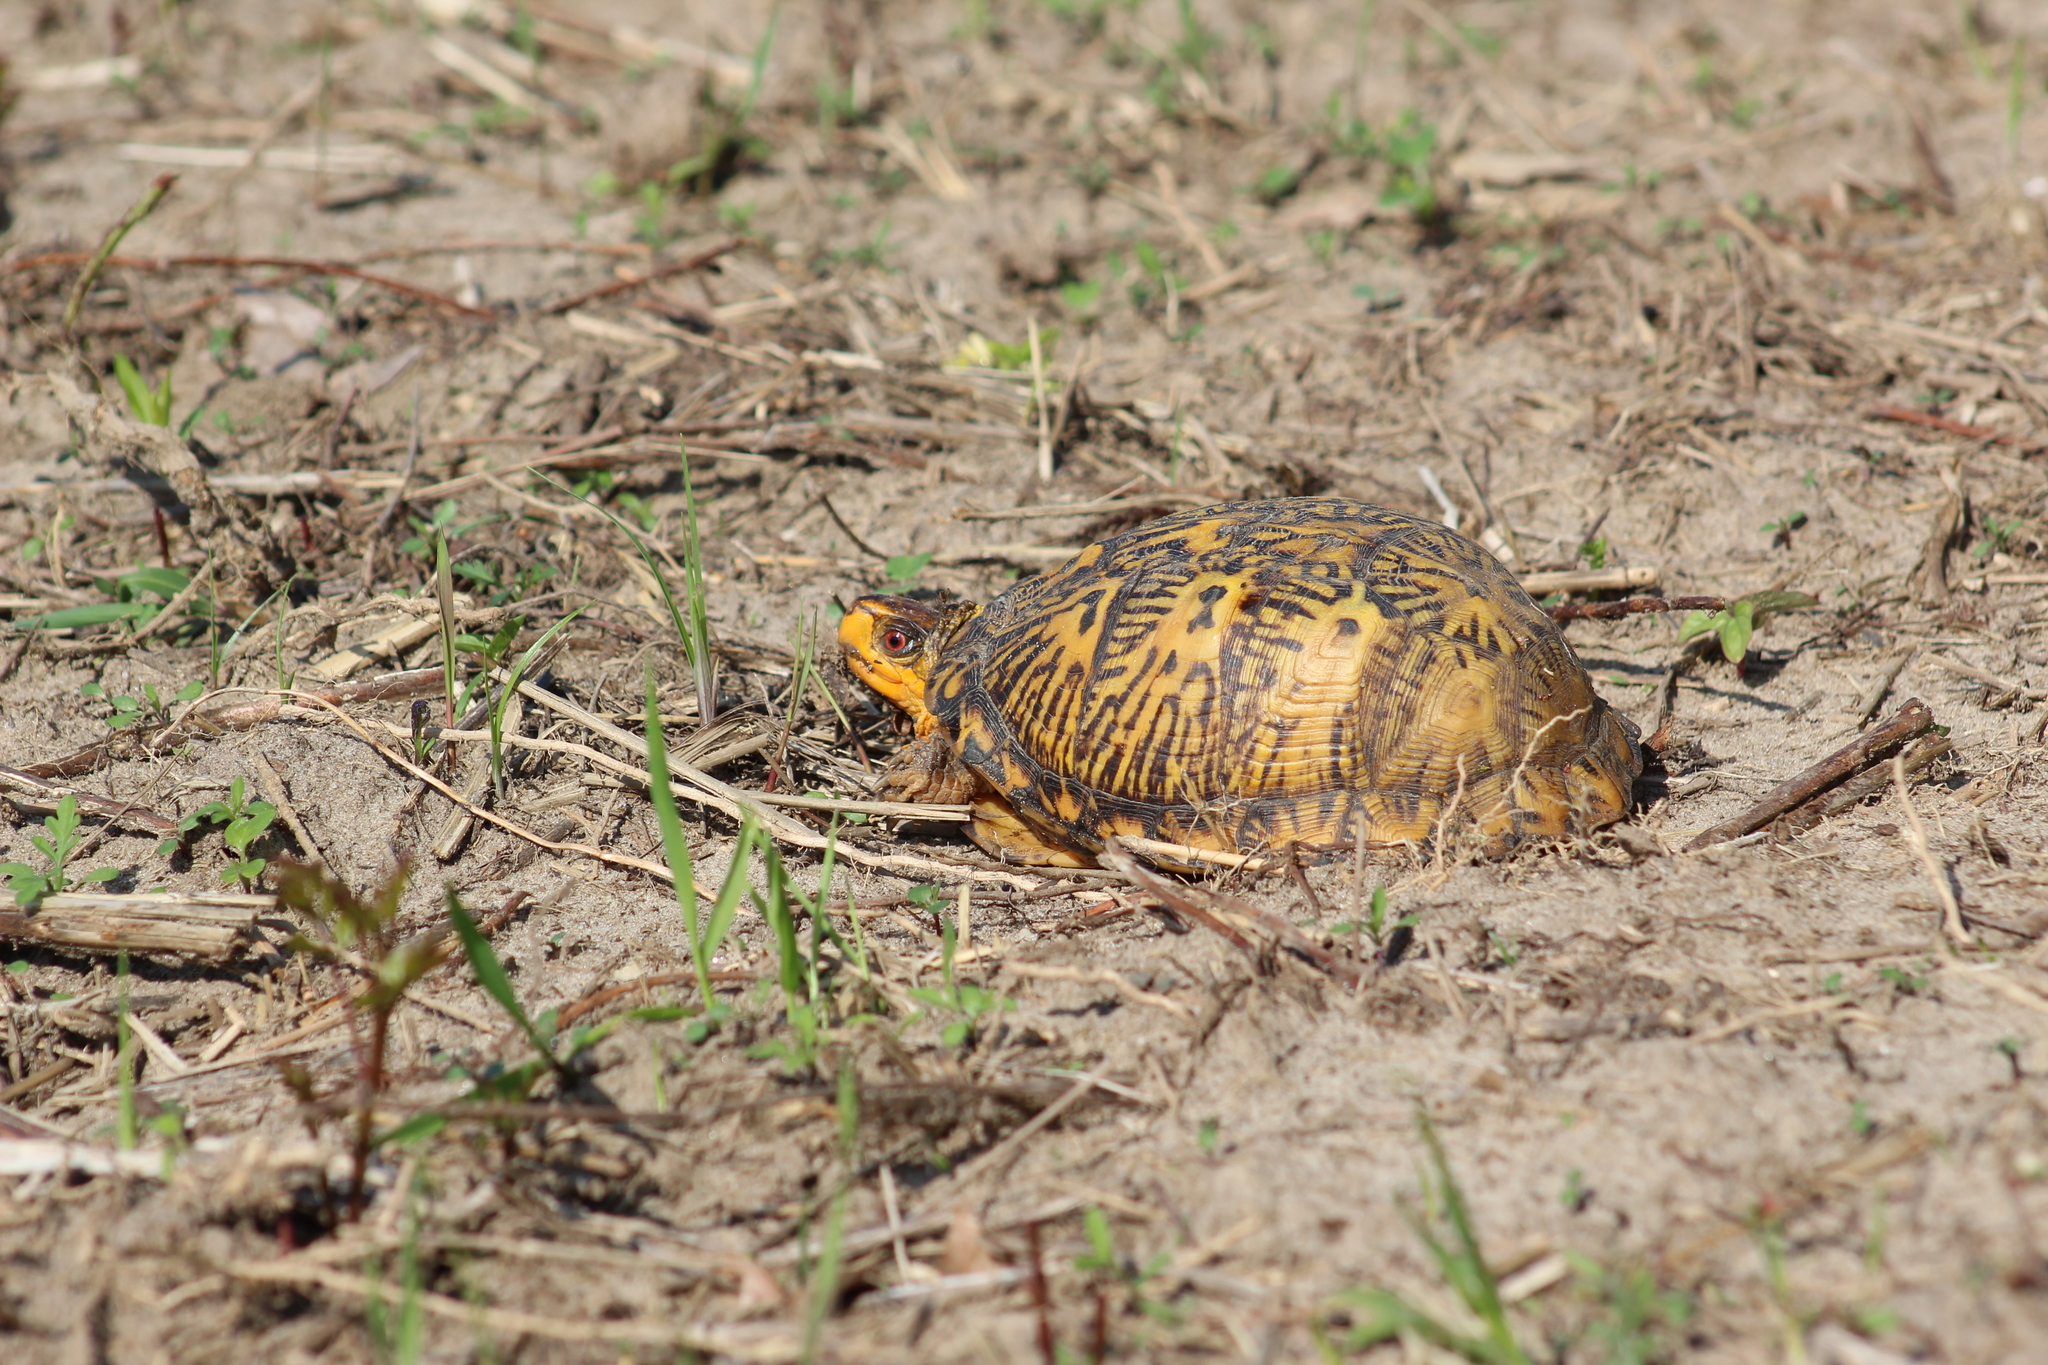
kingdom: Animalia
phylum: Chordata
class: Testudines
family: Emydidae
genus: Terrapene
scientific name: Terrapene carolina
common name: Common box turtle
